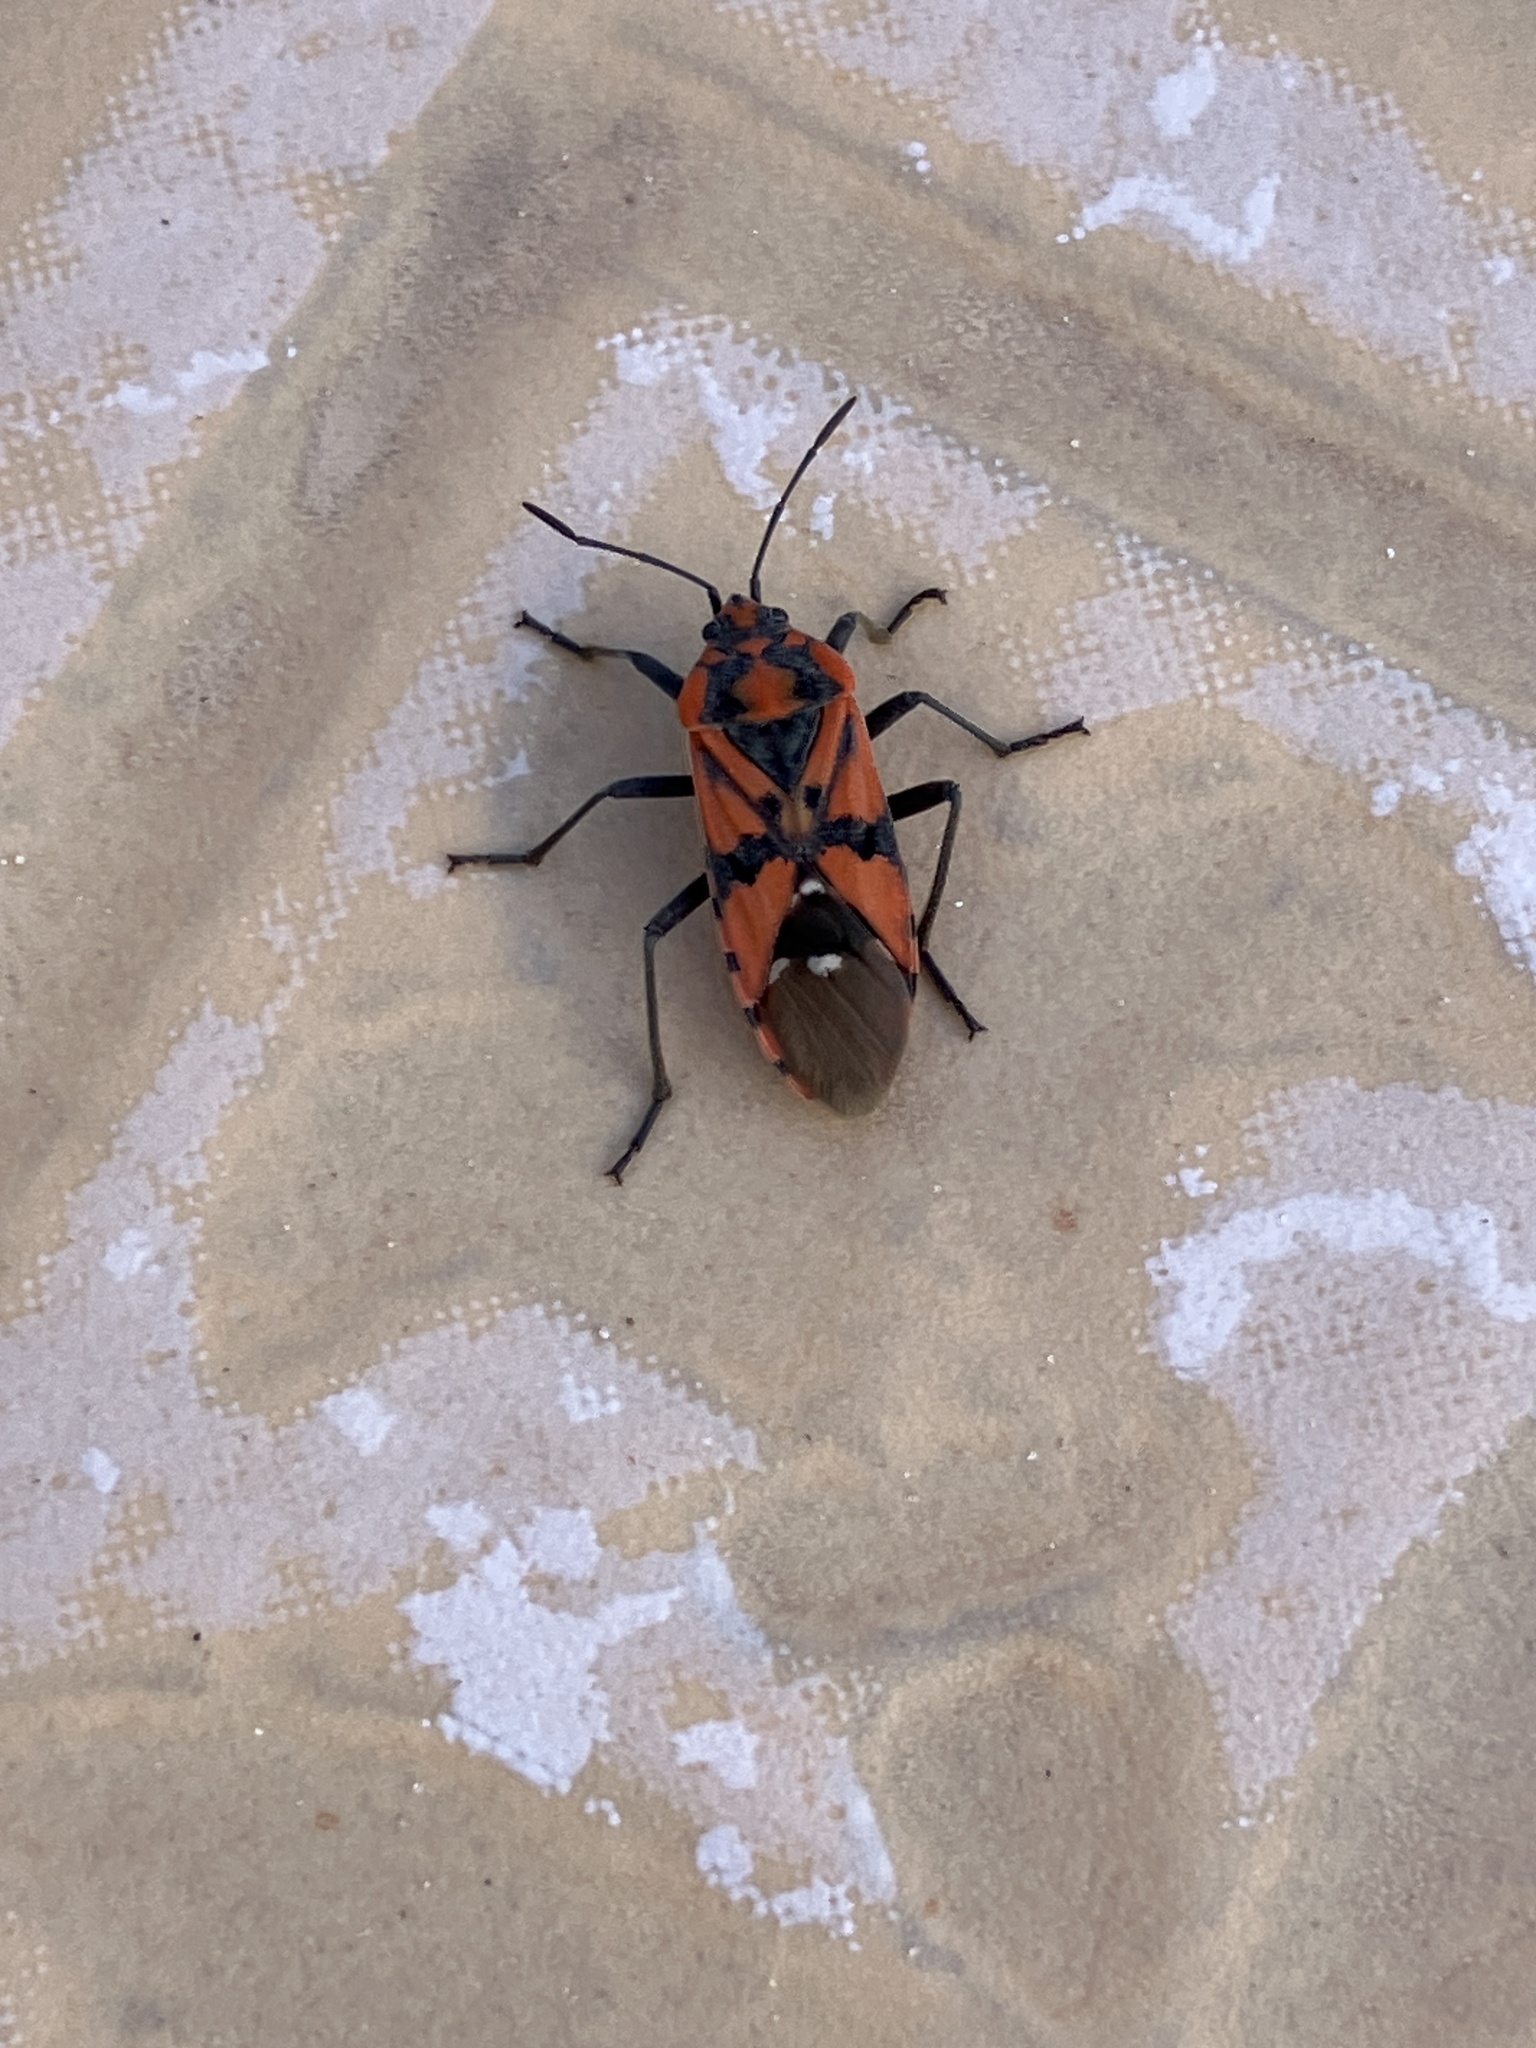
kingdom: Animalia
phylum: Arthropoda
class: Insecta
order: Hemiptera
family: Lygaeidae
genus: Spilostethus
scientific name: Spilostethus pandurus
